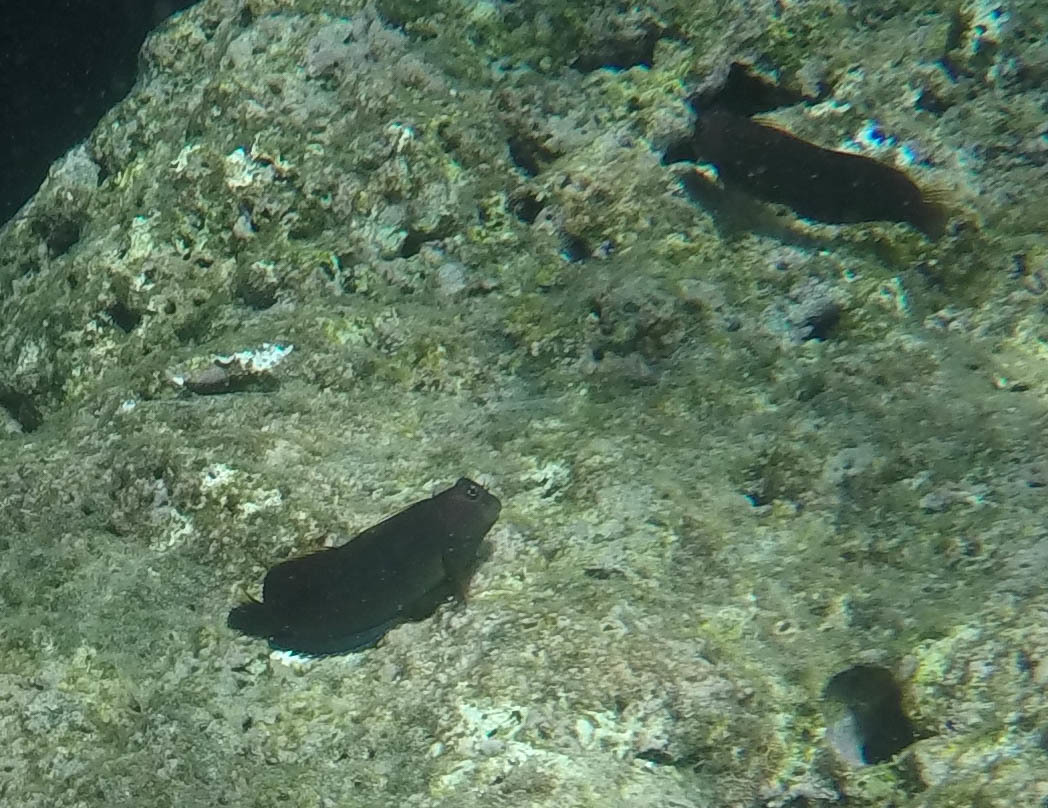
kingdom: Animalia
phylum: Chordata
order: Perciformes
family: Blenniidae
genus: Cirripectes
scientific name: Cirripectes vanderbilti
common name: Red-head blenny
